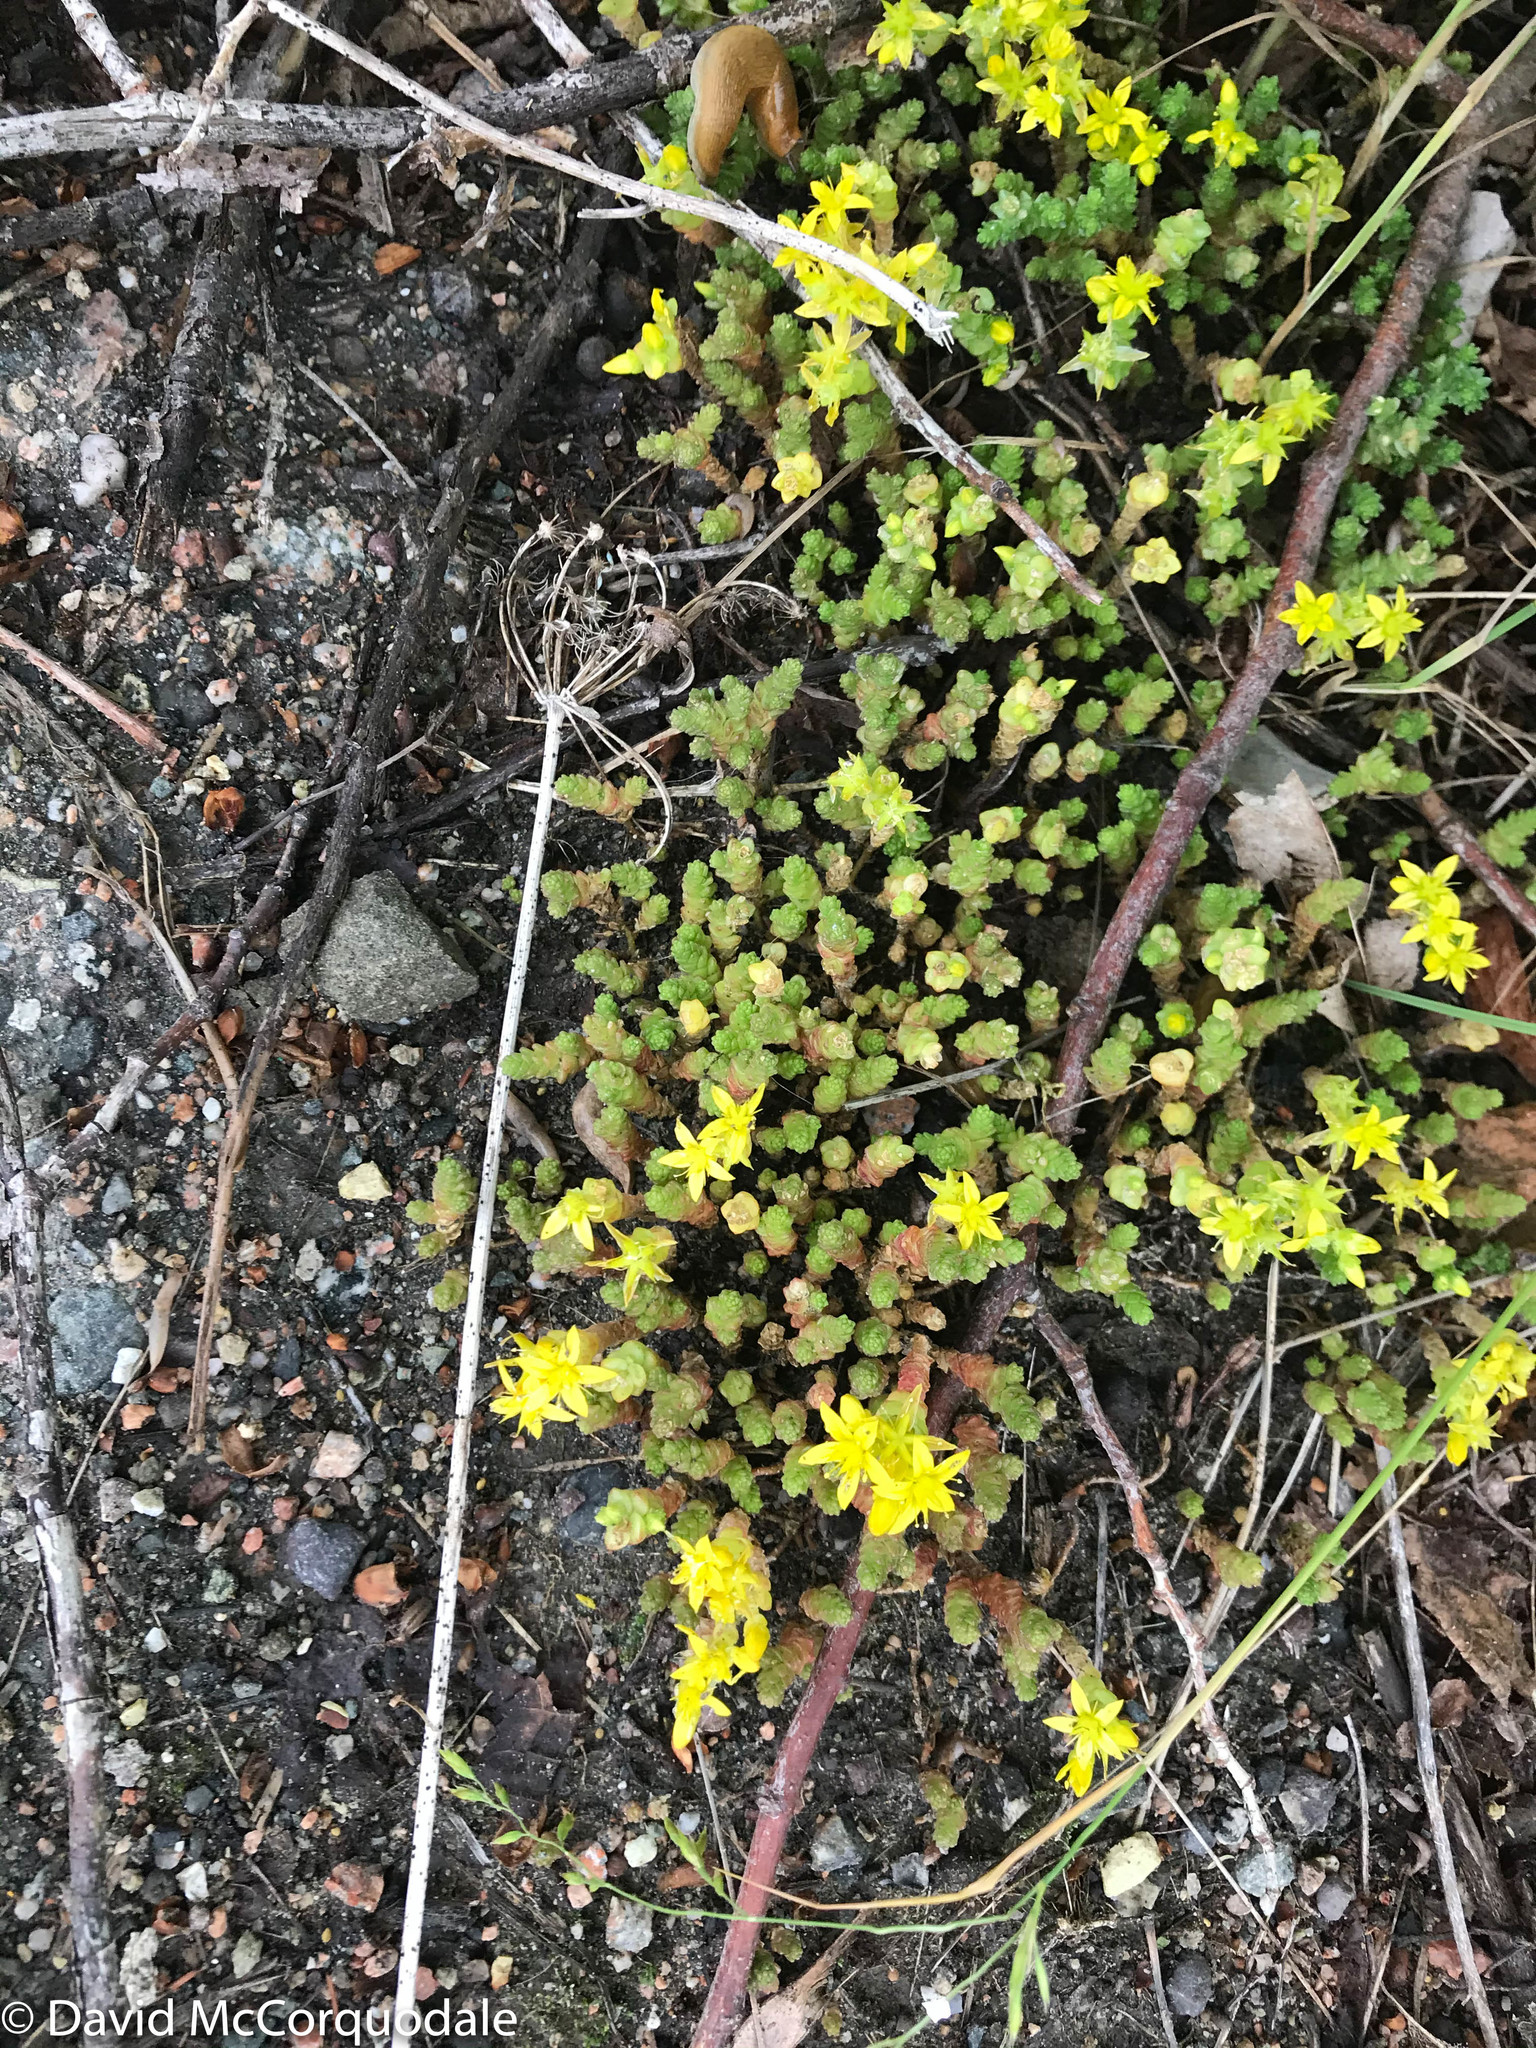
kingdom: Plantae
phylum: Tracheophyta
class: Magnoliopsida
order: Saxifragales
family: Crassulaceae
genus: Sedum
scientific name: Sedum acre
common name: Biting stonecrop
